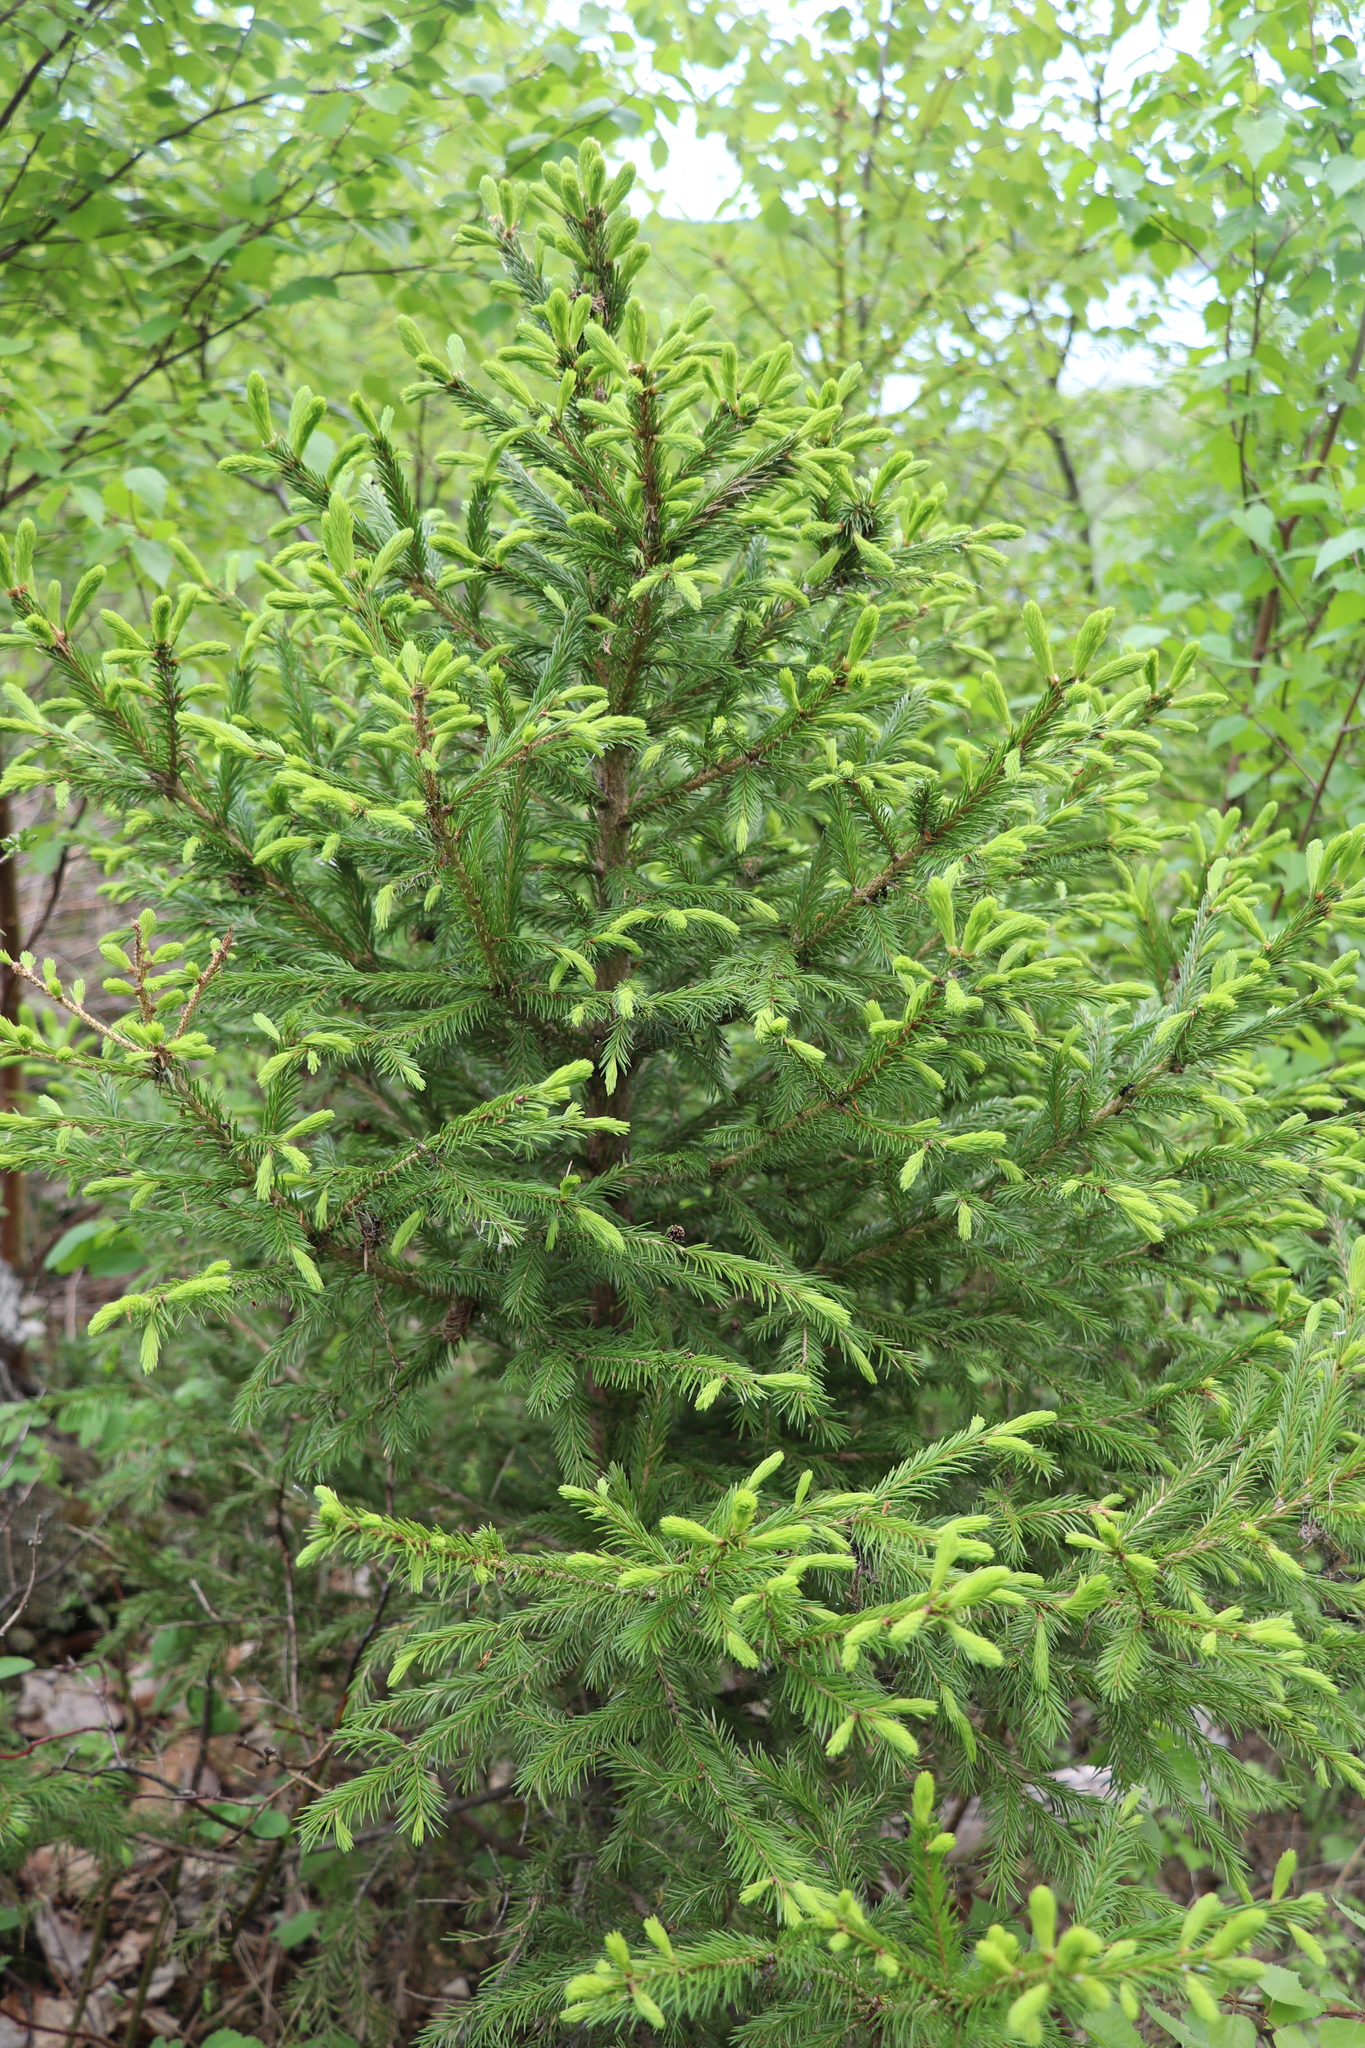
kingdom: Plantae
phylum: Tracheophyta
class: Pinopsida
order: Pinales
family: Pinaceae
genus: Picea
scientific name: Picea obovata
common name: Siberian spruce
